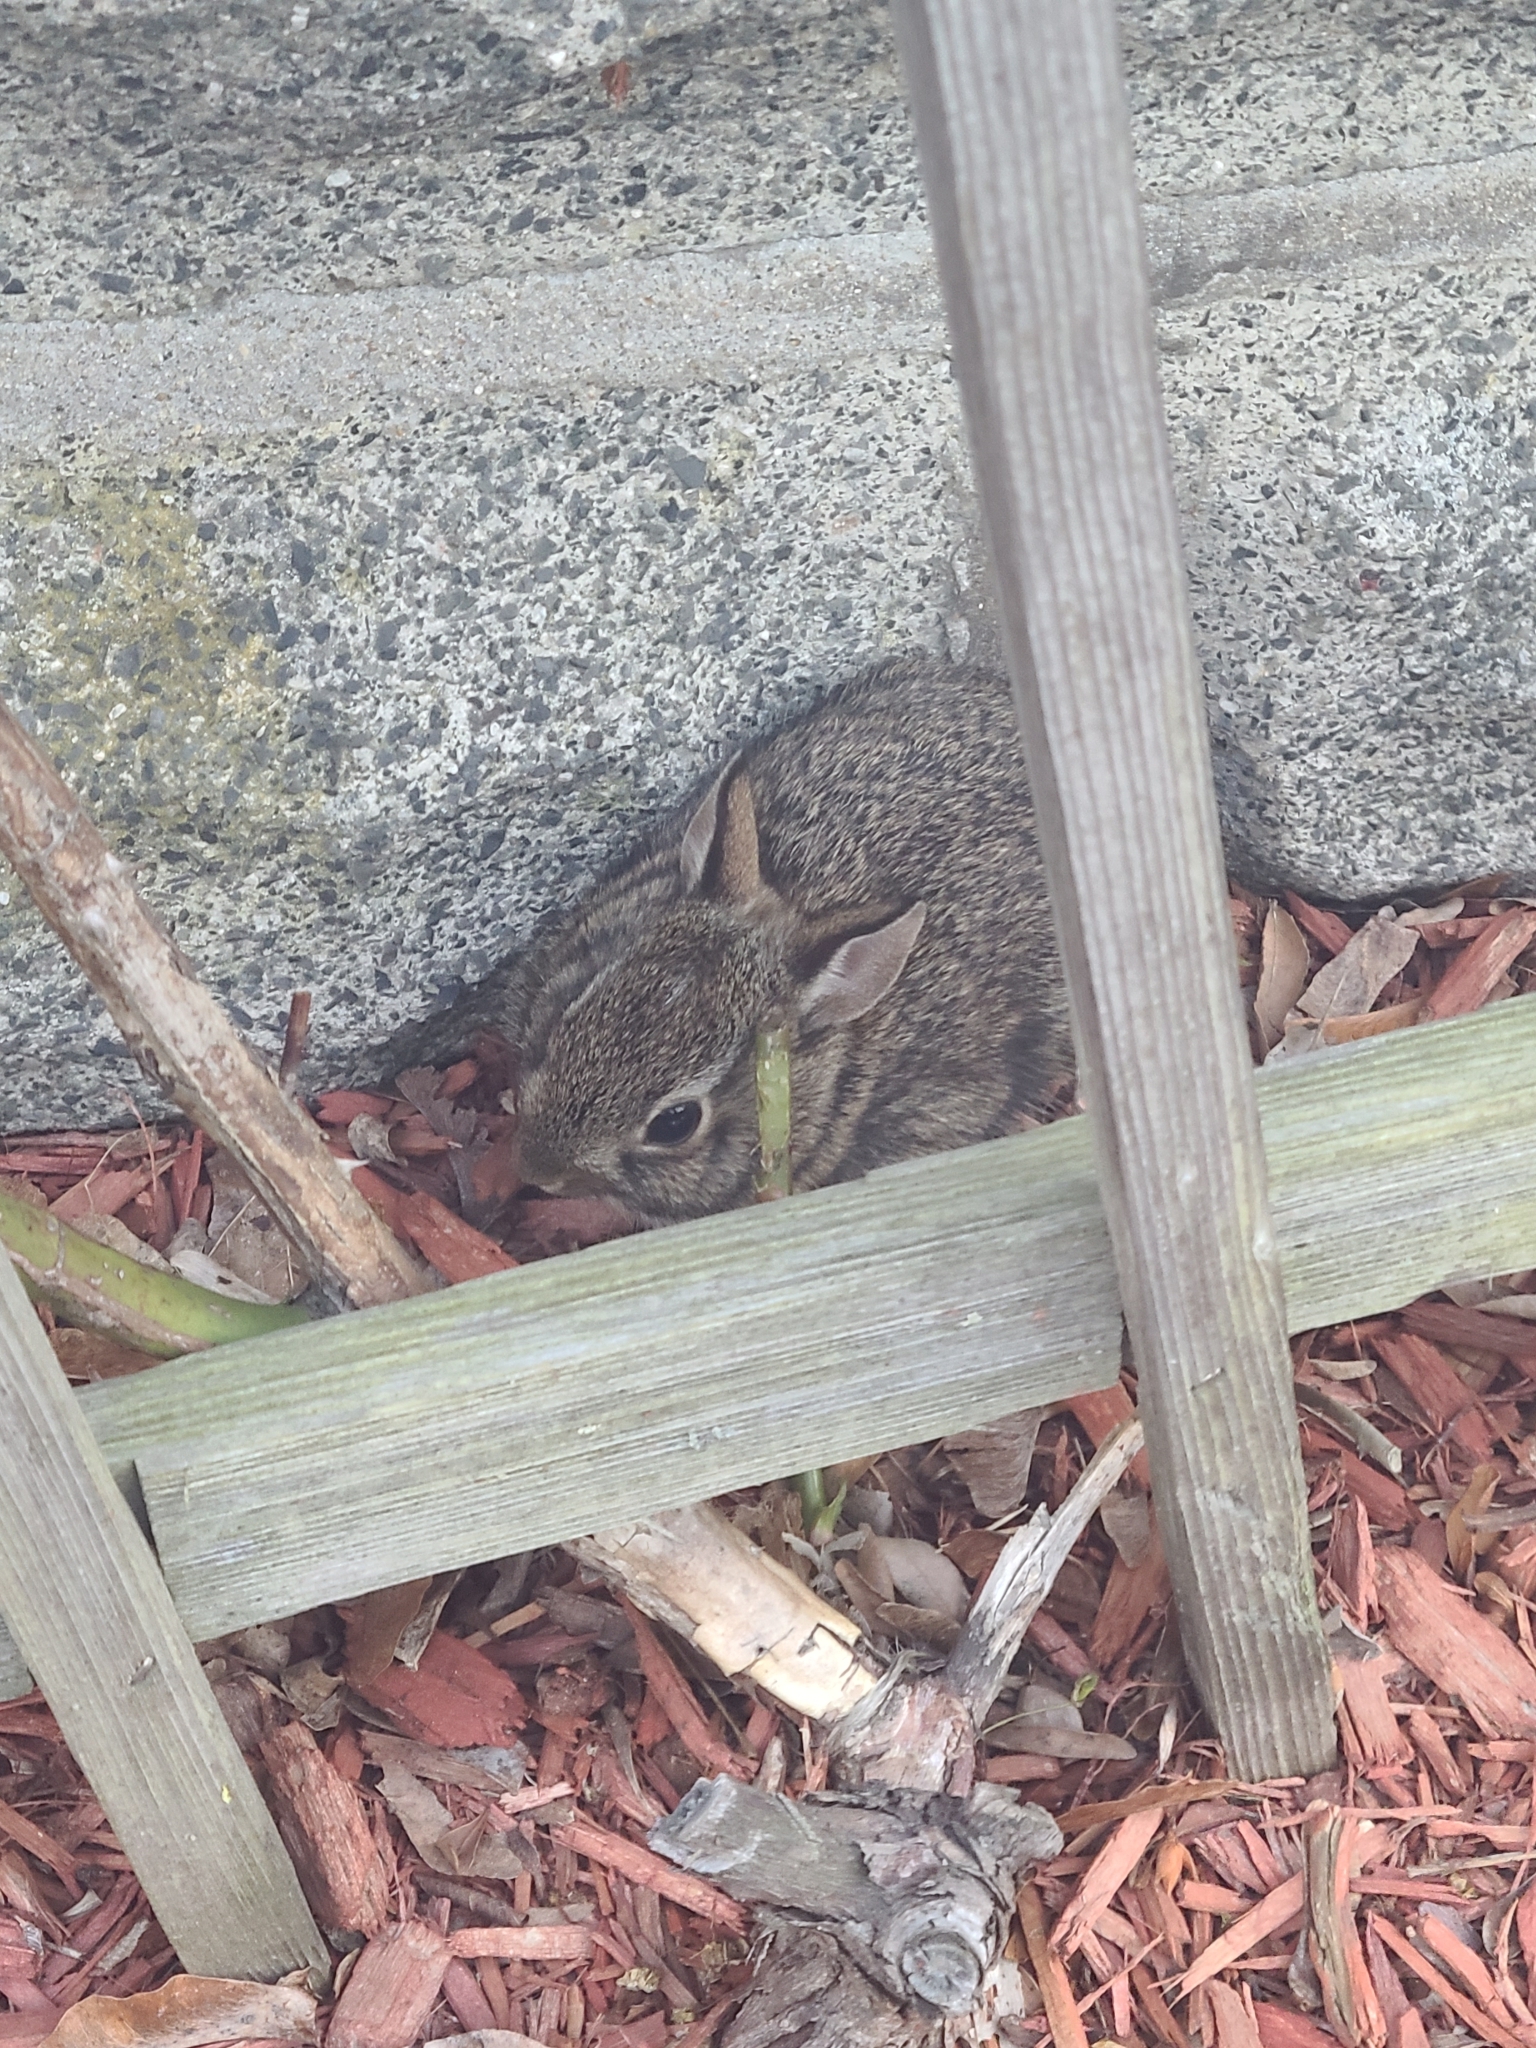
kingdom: Animalia
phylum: Chordata
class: Mammalia
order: Lagomorpha
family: Leporidae
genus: Sylvilagus
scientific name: Sylvilagus floridanus
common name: Eastern cottontail
